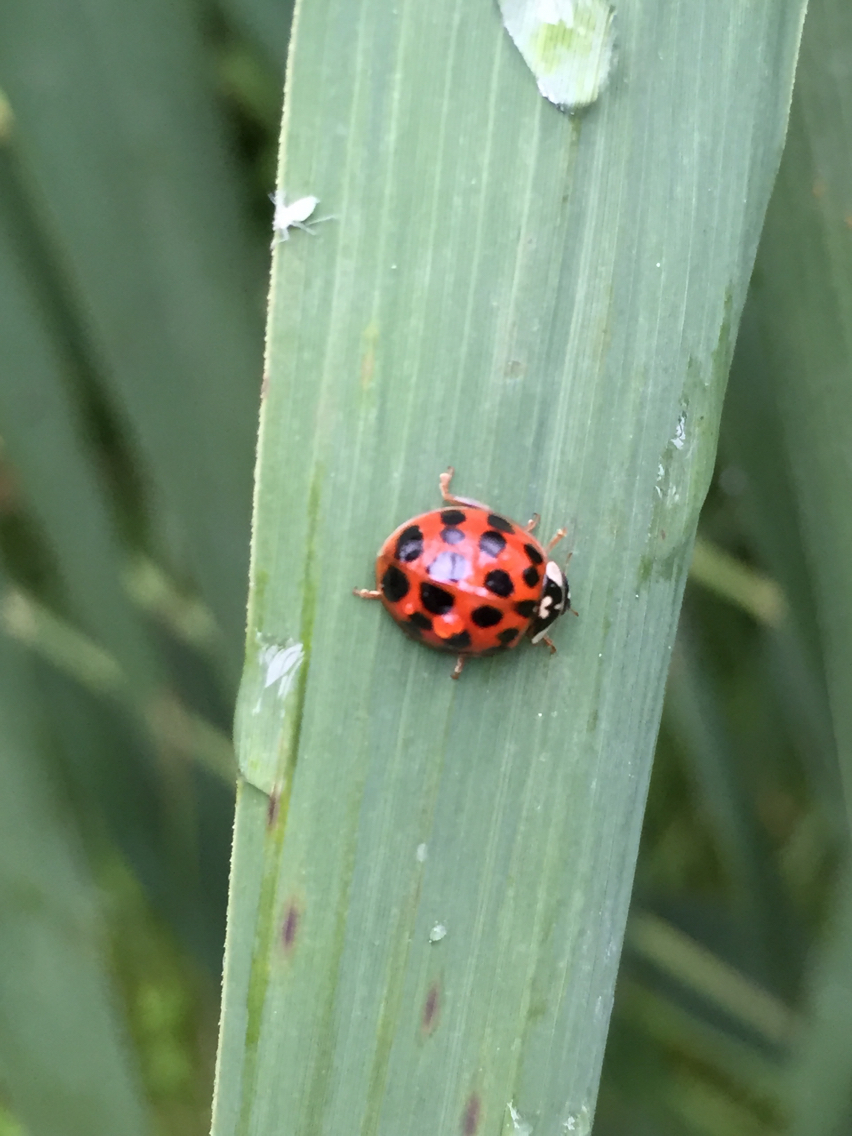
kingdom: Animalia
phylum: Arthropoda
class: Insecta
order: Coleoptera
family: Coccinellidae
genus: Harmonia
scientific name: Harmonia axyridis
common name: Harlequin ladybird
